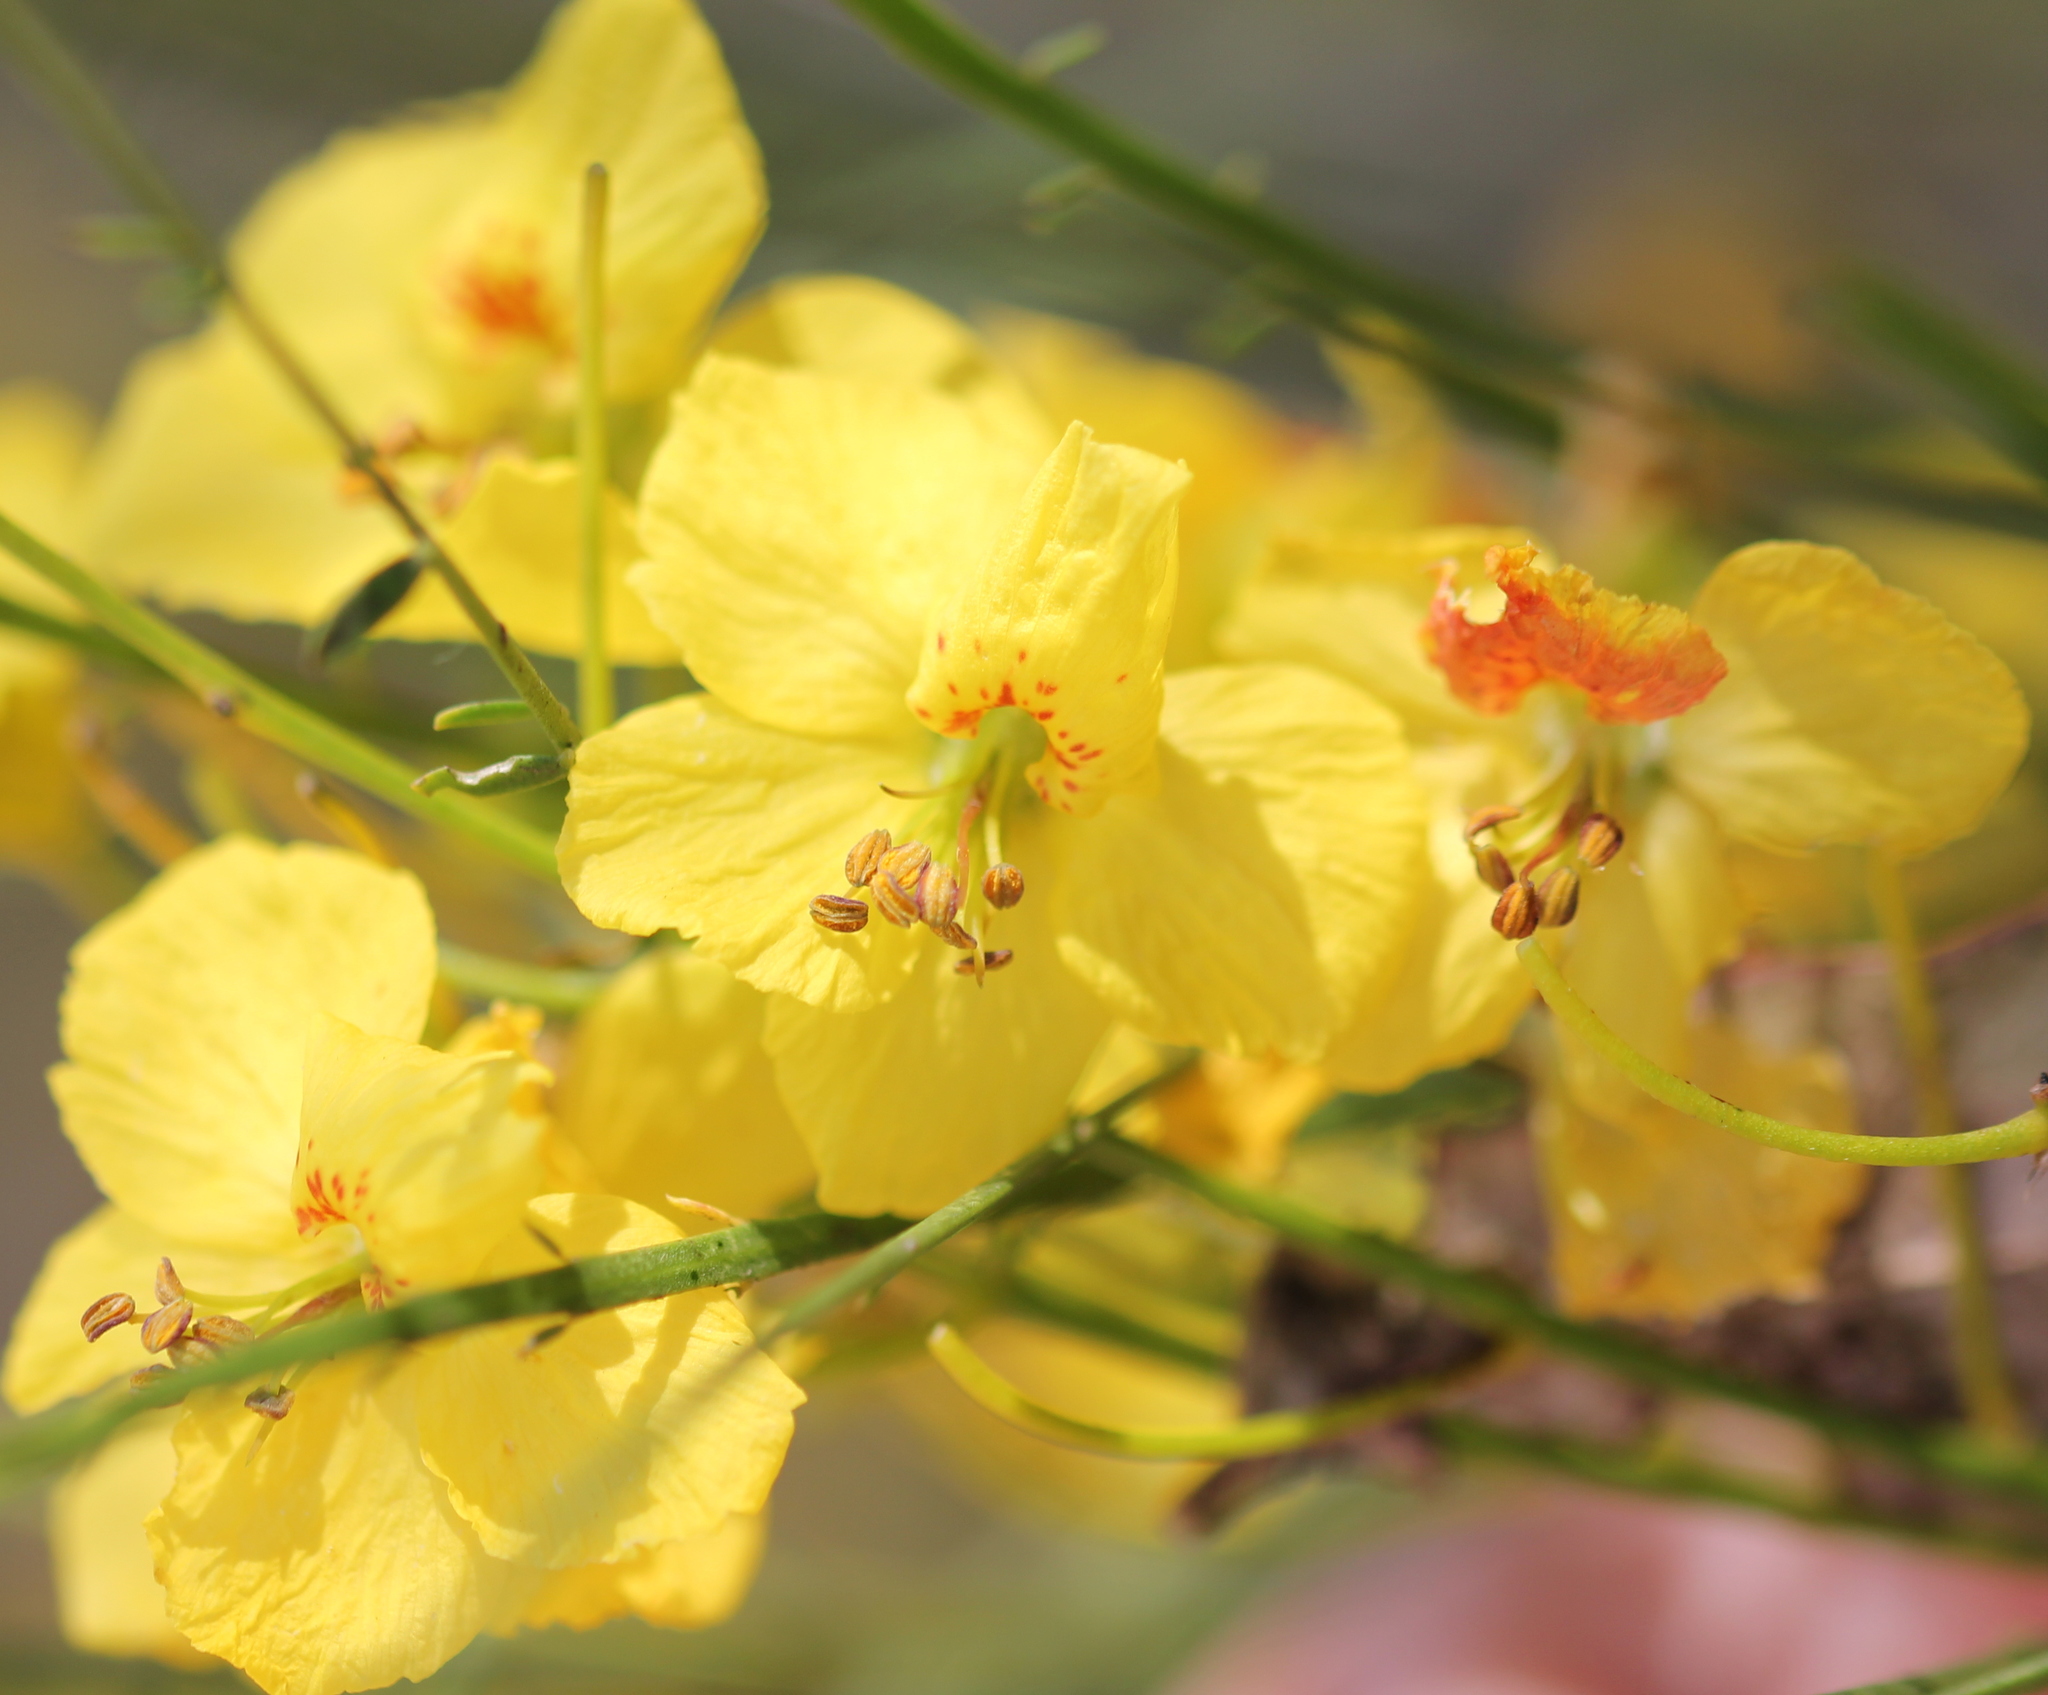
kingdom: Plantae
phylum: Tracheophyta
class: Magnoliopsida
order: Fabales
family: Fabaceae
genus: Parkinsonia
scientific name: Parkinsonia aculeata
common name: Jerusalem thorn
